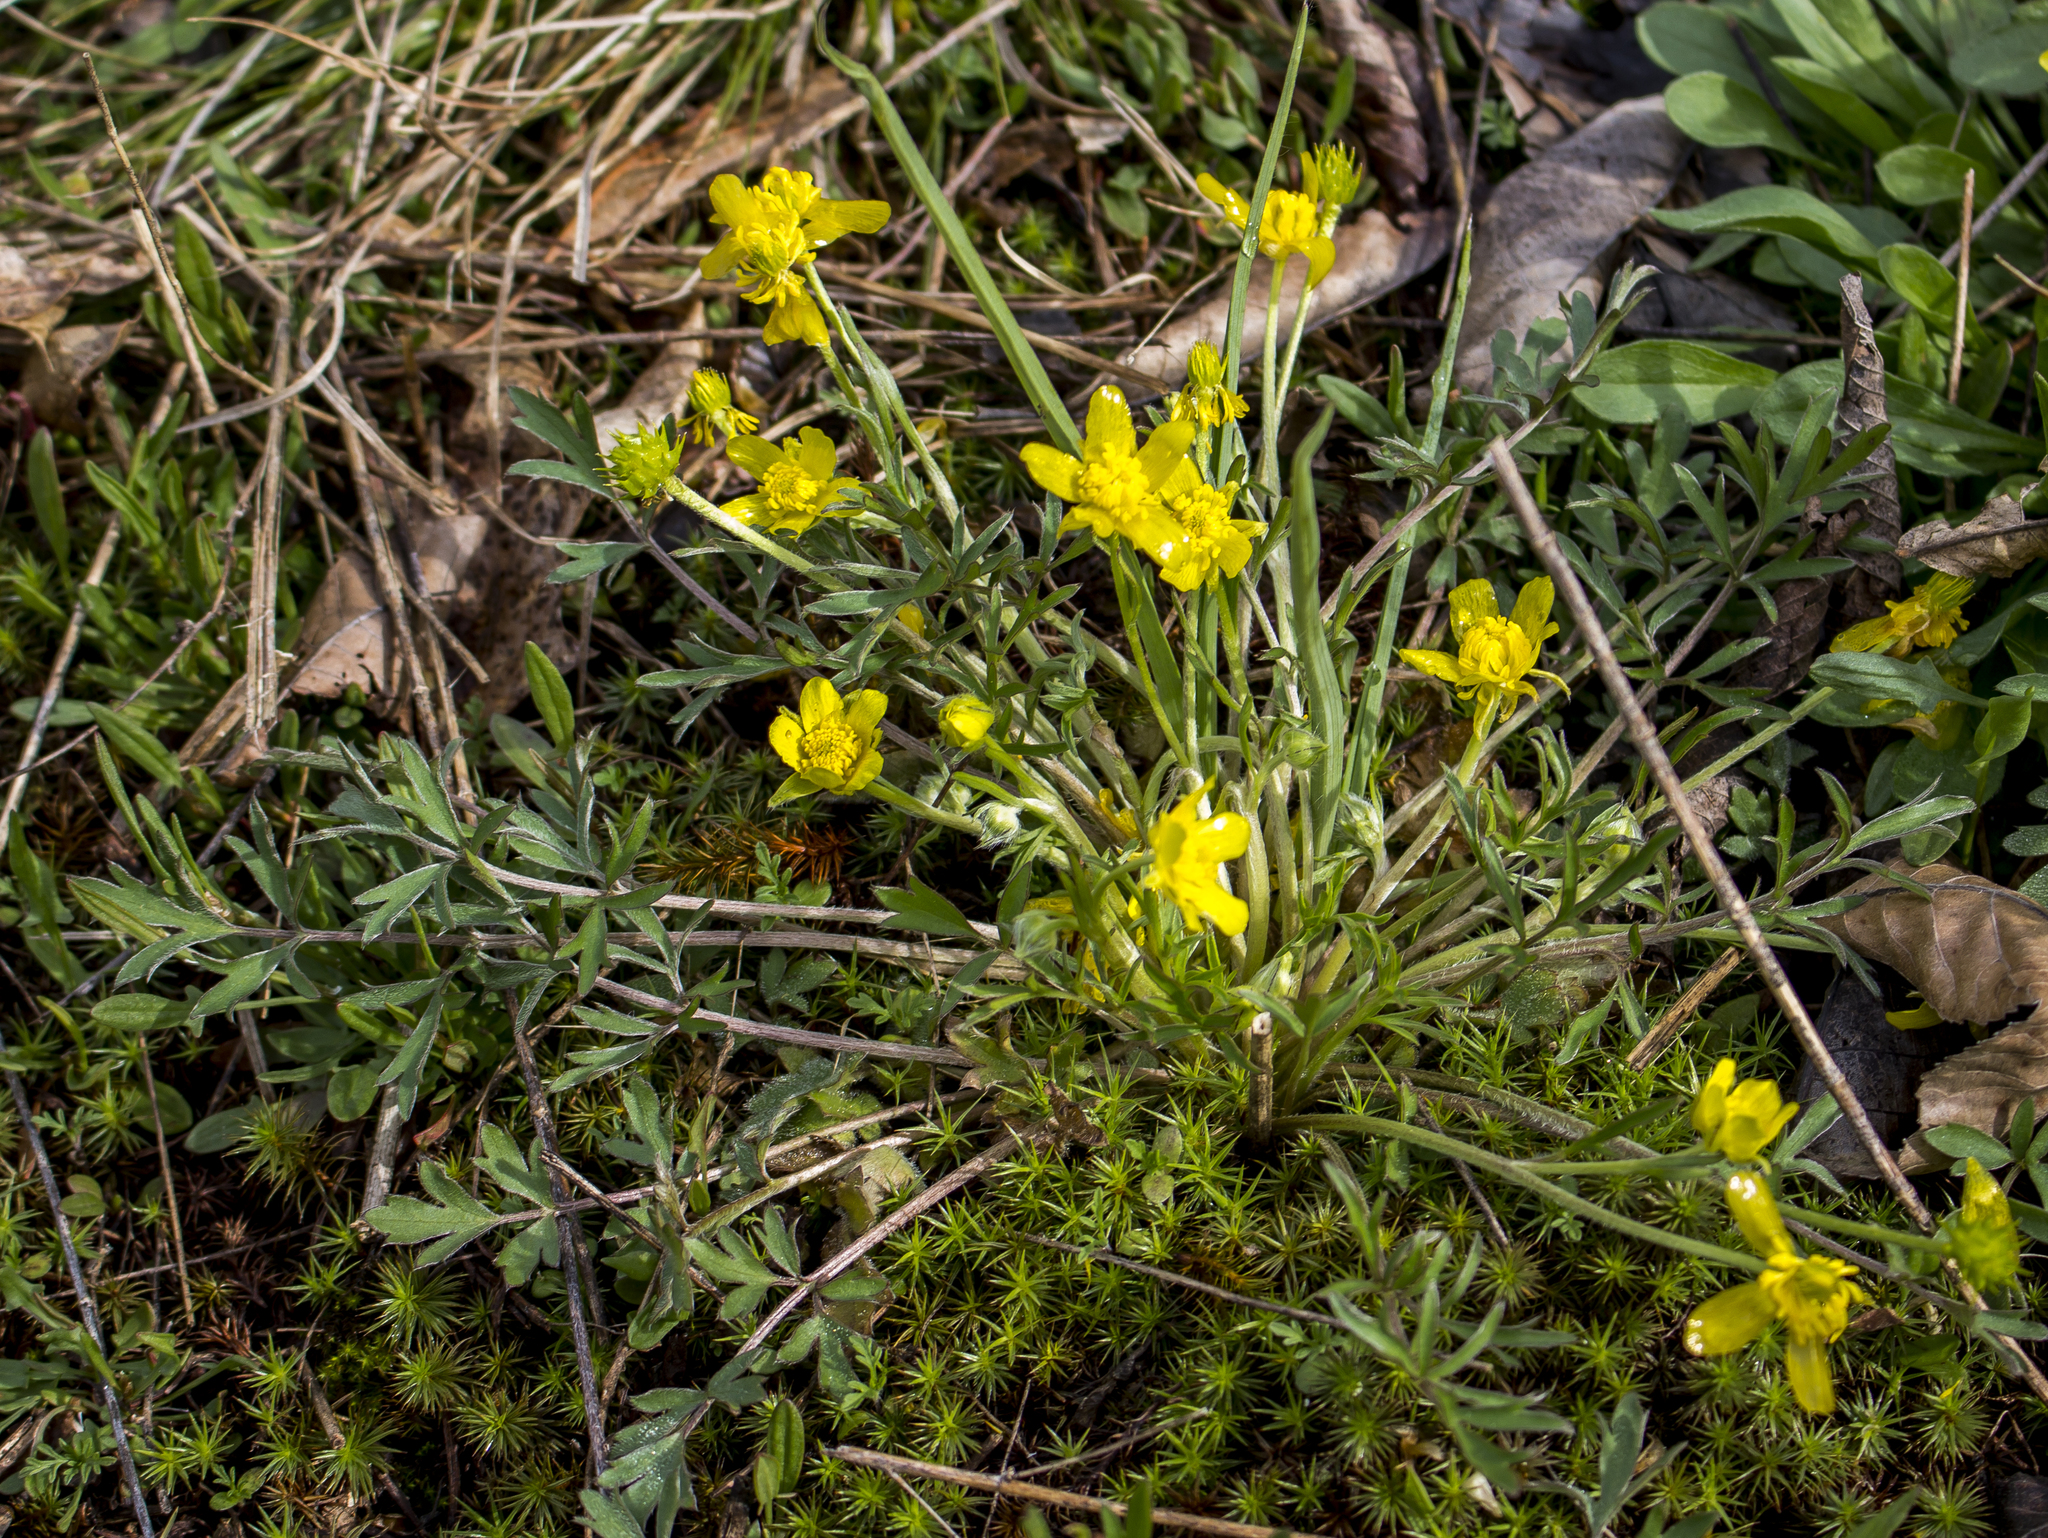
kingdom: Plantae
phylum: Tracheophyta
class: Magnoliopsida
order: Ranunculales
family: Ranunculaceae
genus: Ranunculus
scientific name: Ranunculus fascicularis
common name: Early buttercup
